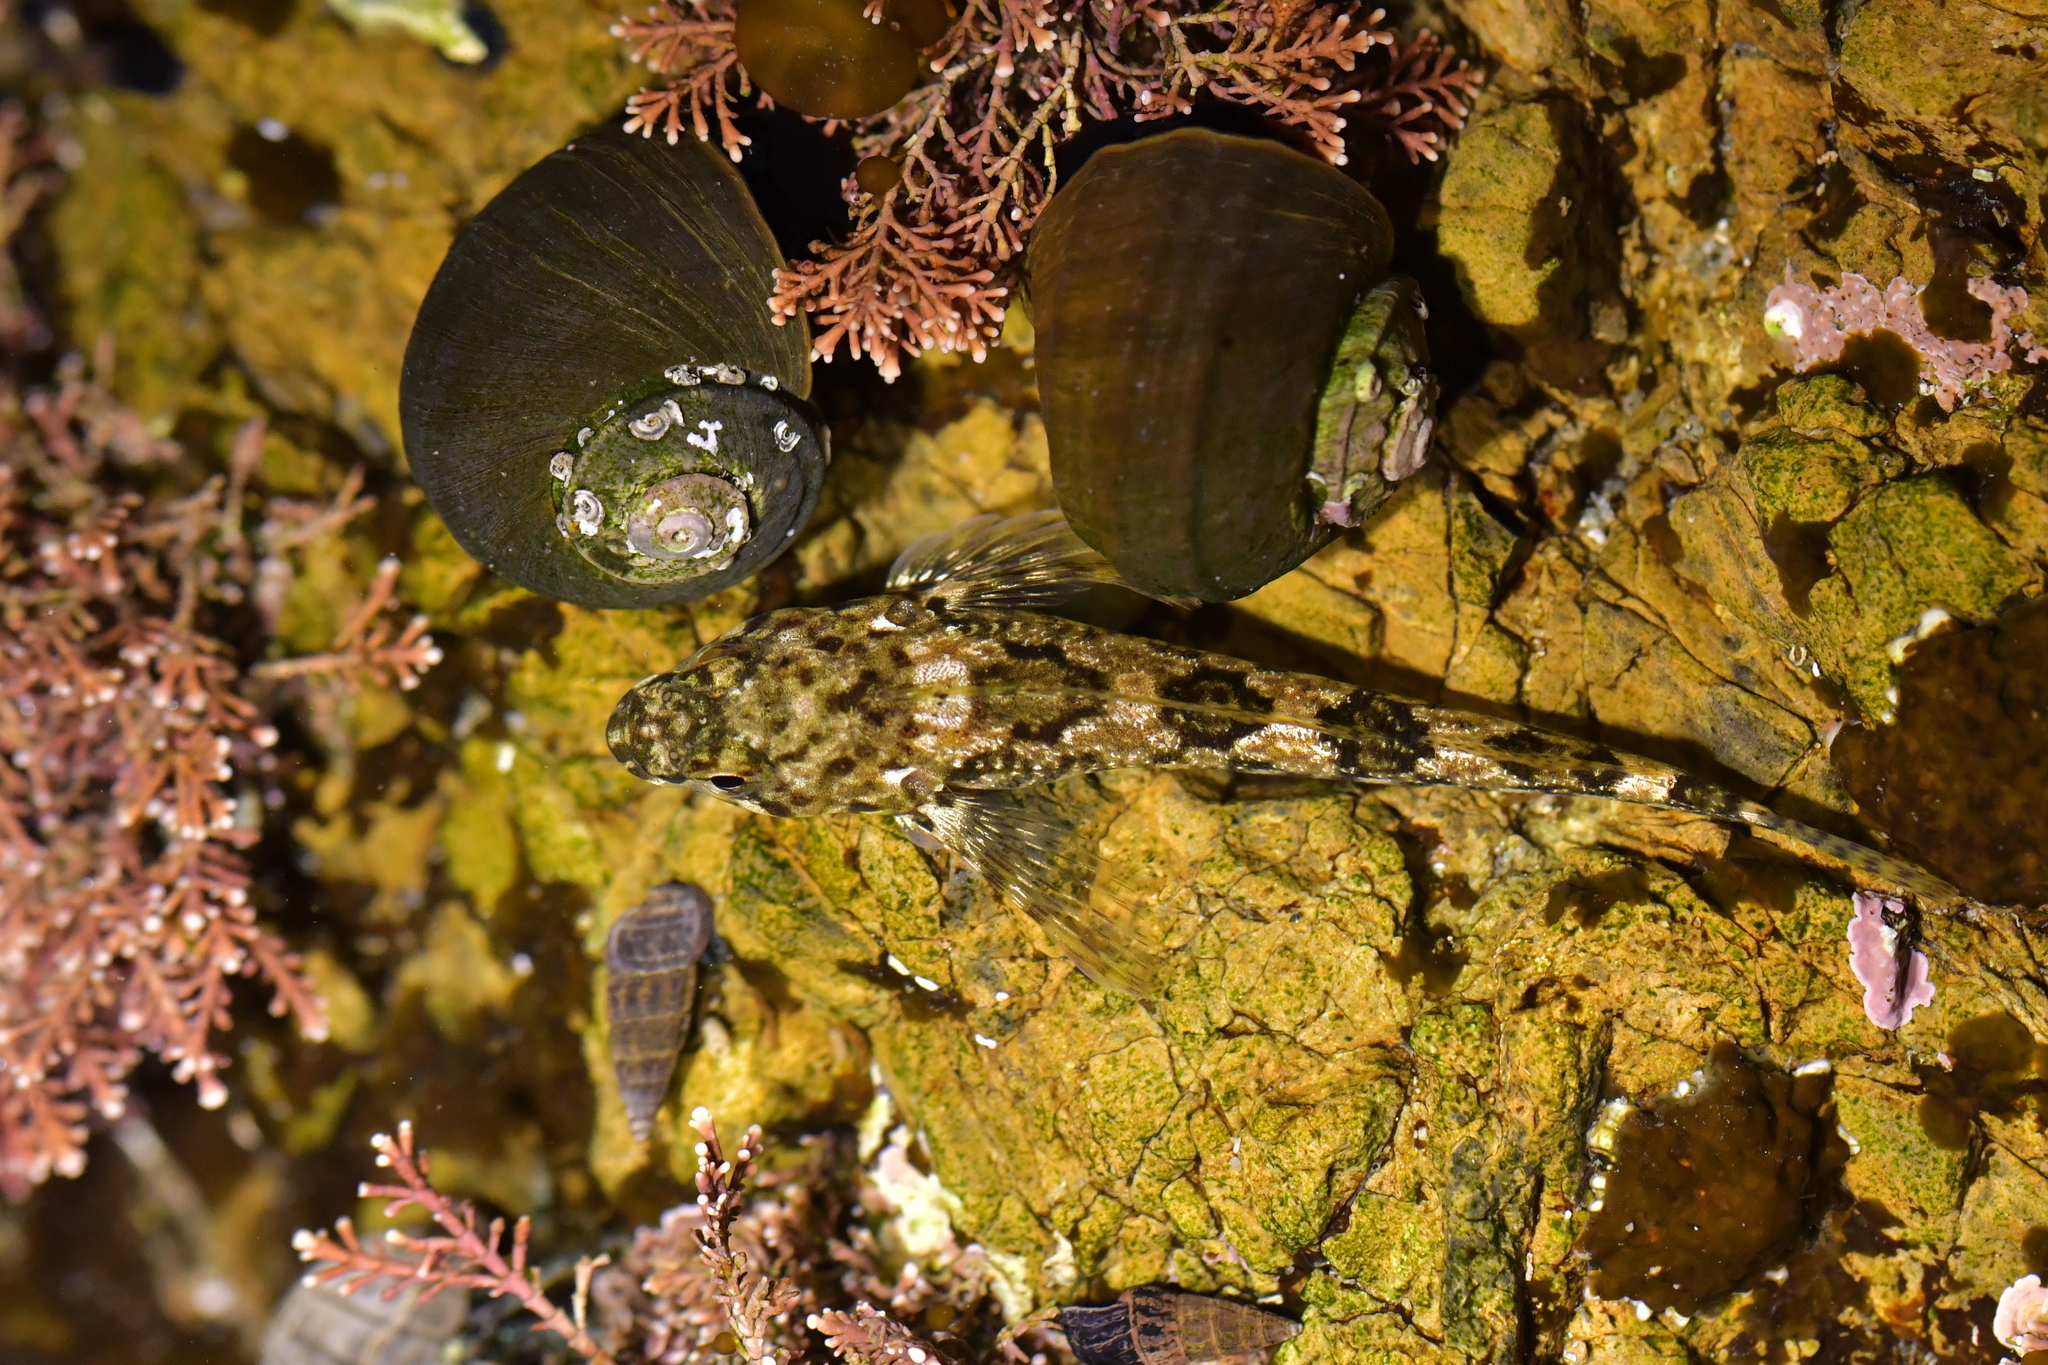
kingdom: Animalia
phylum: Chordata
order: Perciformes
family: Tripterygiidae
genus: Bellapiscis
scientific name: Bellapiscis medius
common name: Twister
